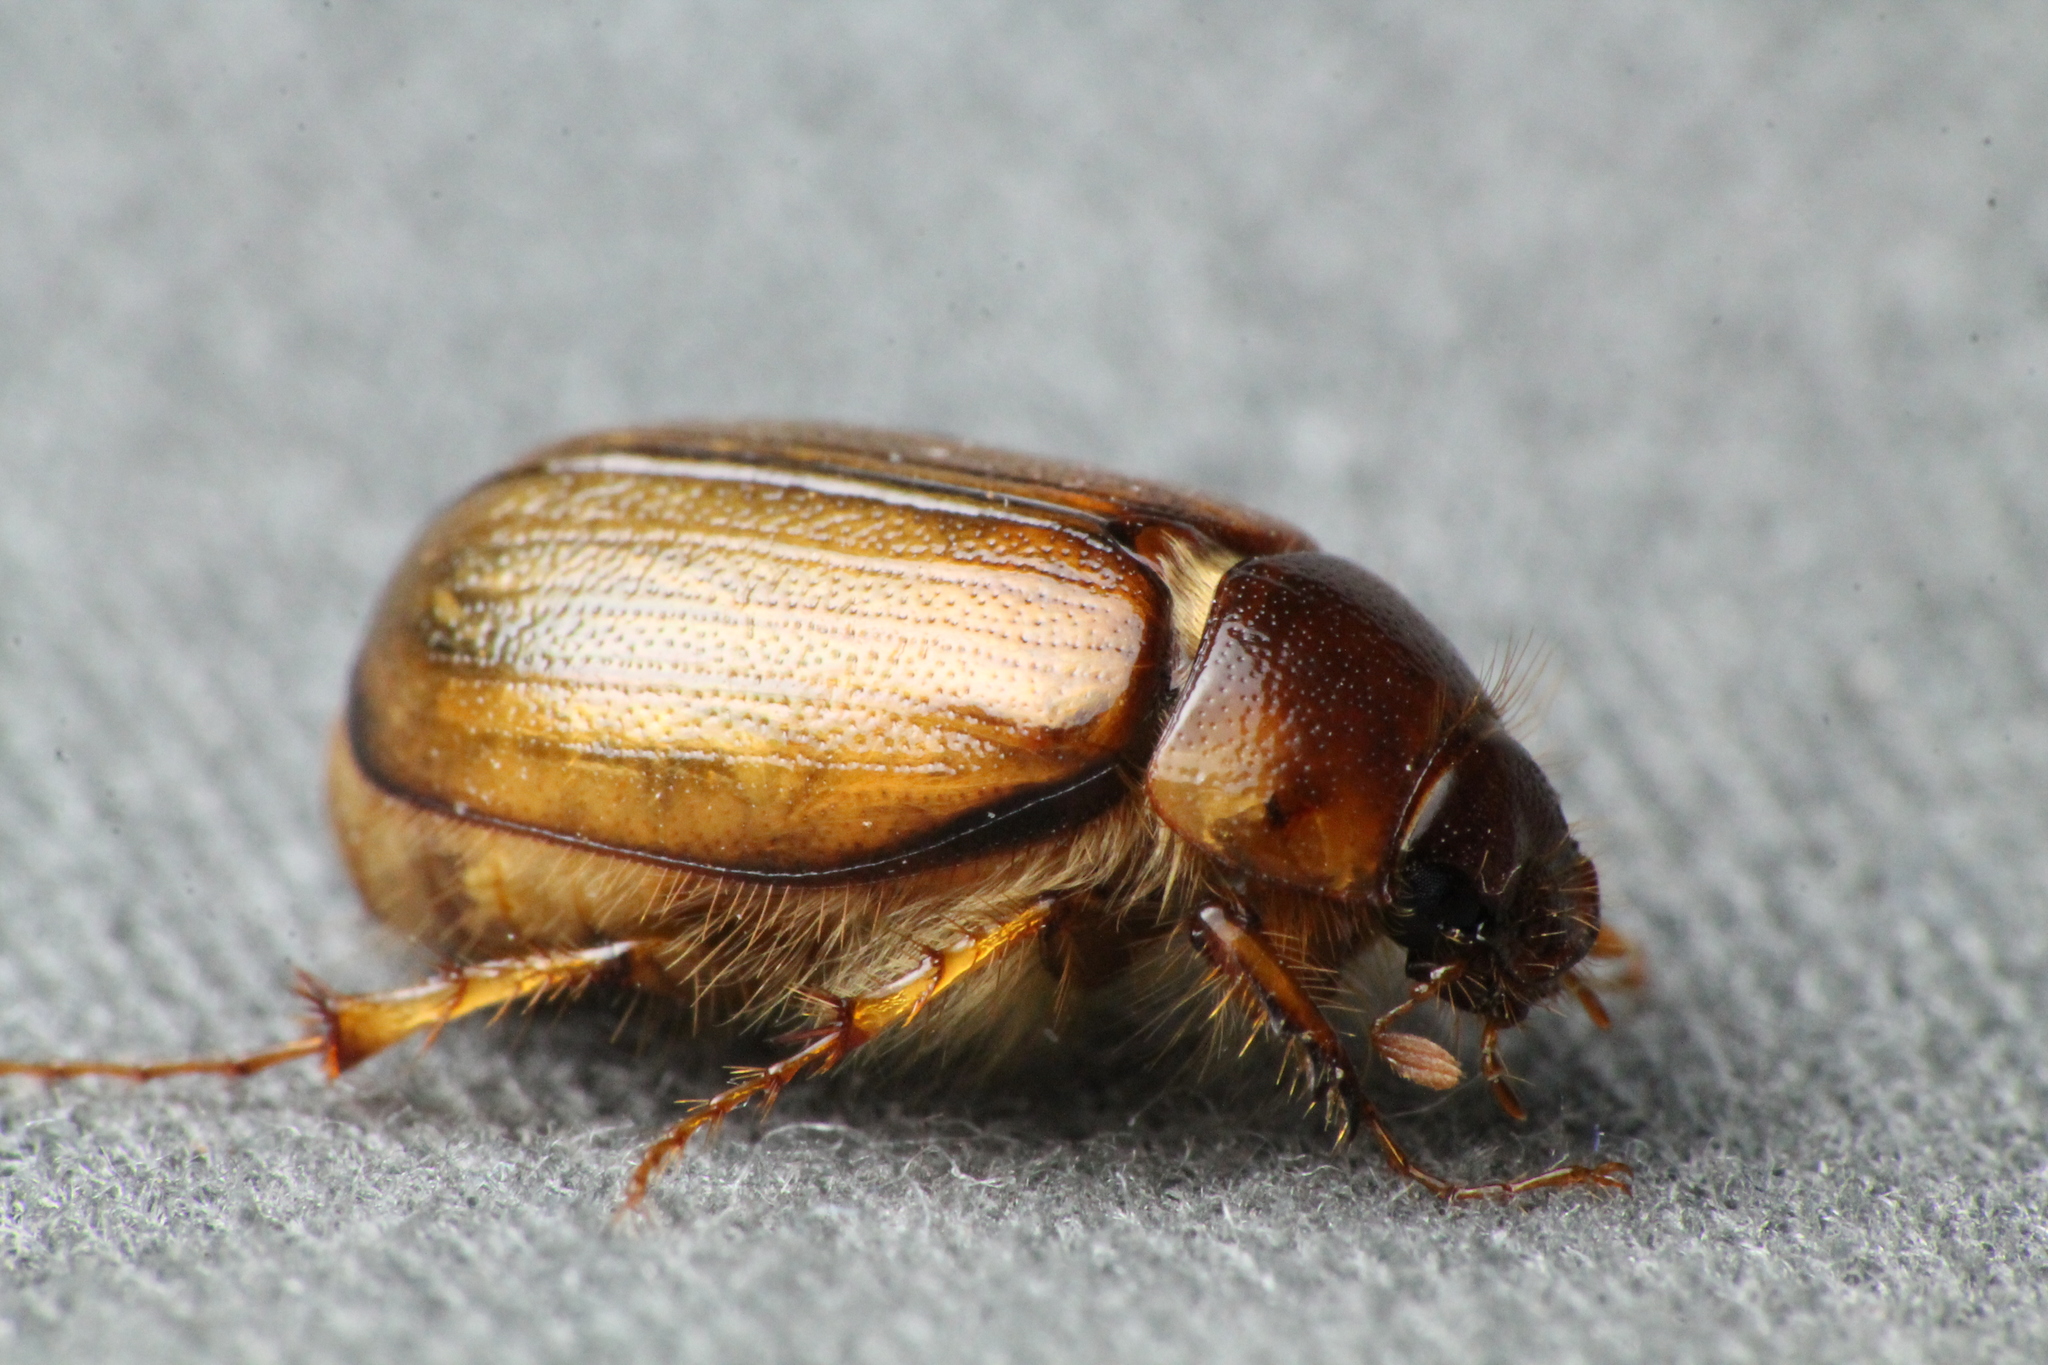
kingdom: Animalia
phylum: Arthropoda
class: Insecta
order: Coleoptera
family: Scarabaeidae
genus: Costelytra
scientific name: Costelytra zealandica
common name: New zealand grass grub
